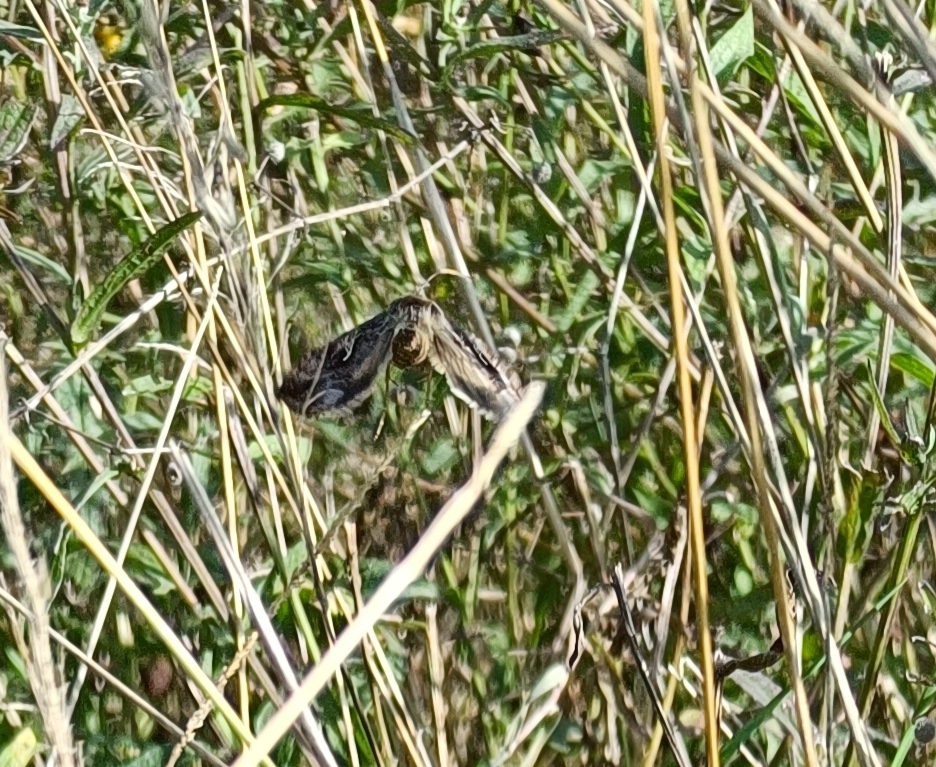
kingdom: Animalia
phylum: Arthropoda
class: Insecta
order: Lepidoptera
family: Noctuidae
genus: Autographa
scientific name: Autographa gamma
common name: Silver y
